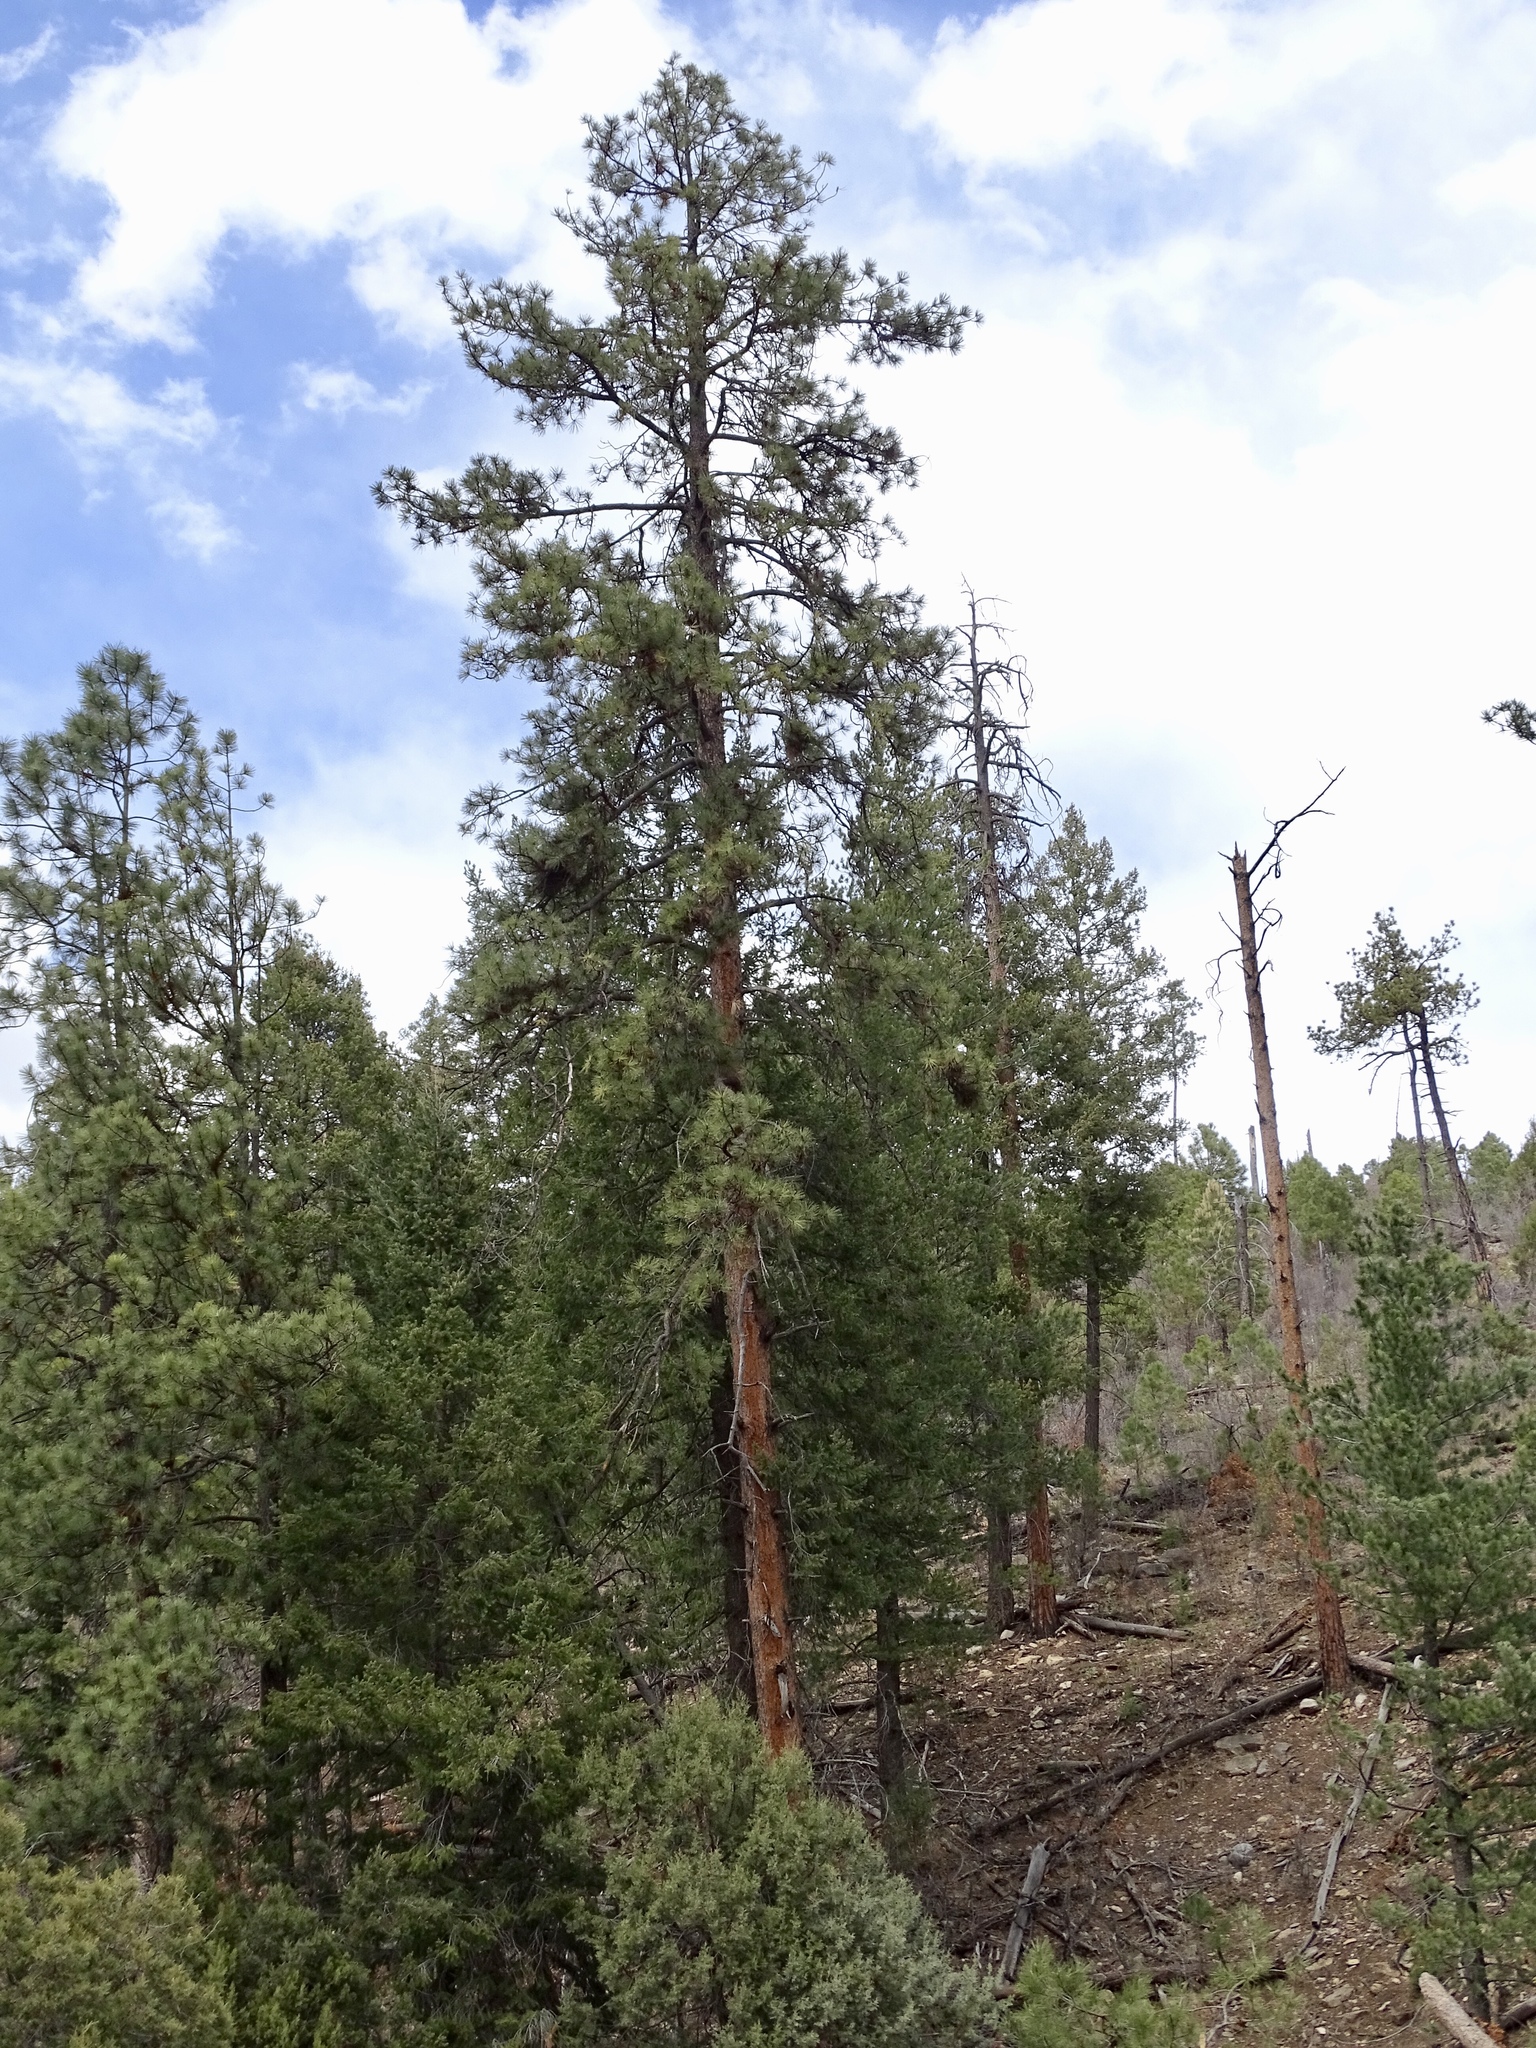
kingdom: Plantae
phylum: Tracheophyta
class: Pinopsida
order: Pinales
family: Pinaceae
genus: Pinus
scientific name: Pinus ponderosa
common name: Western yellow-pine
